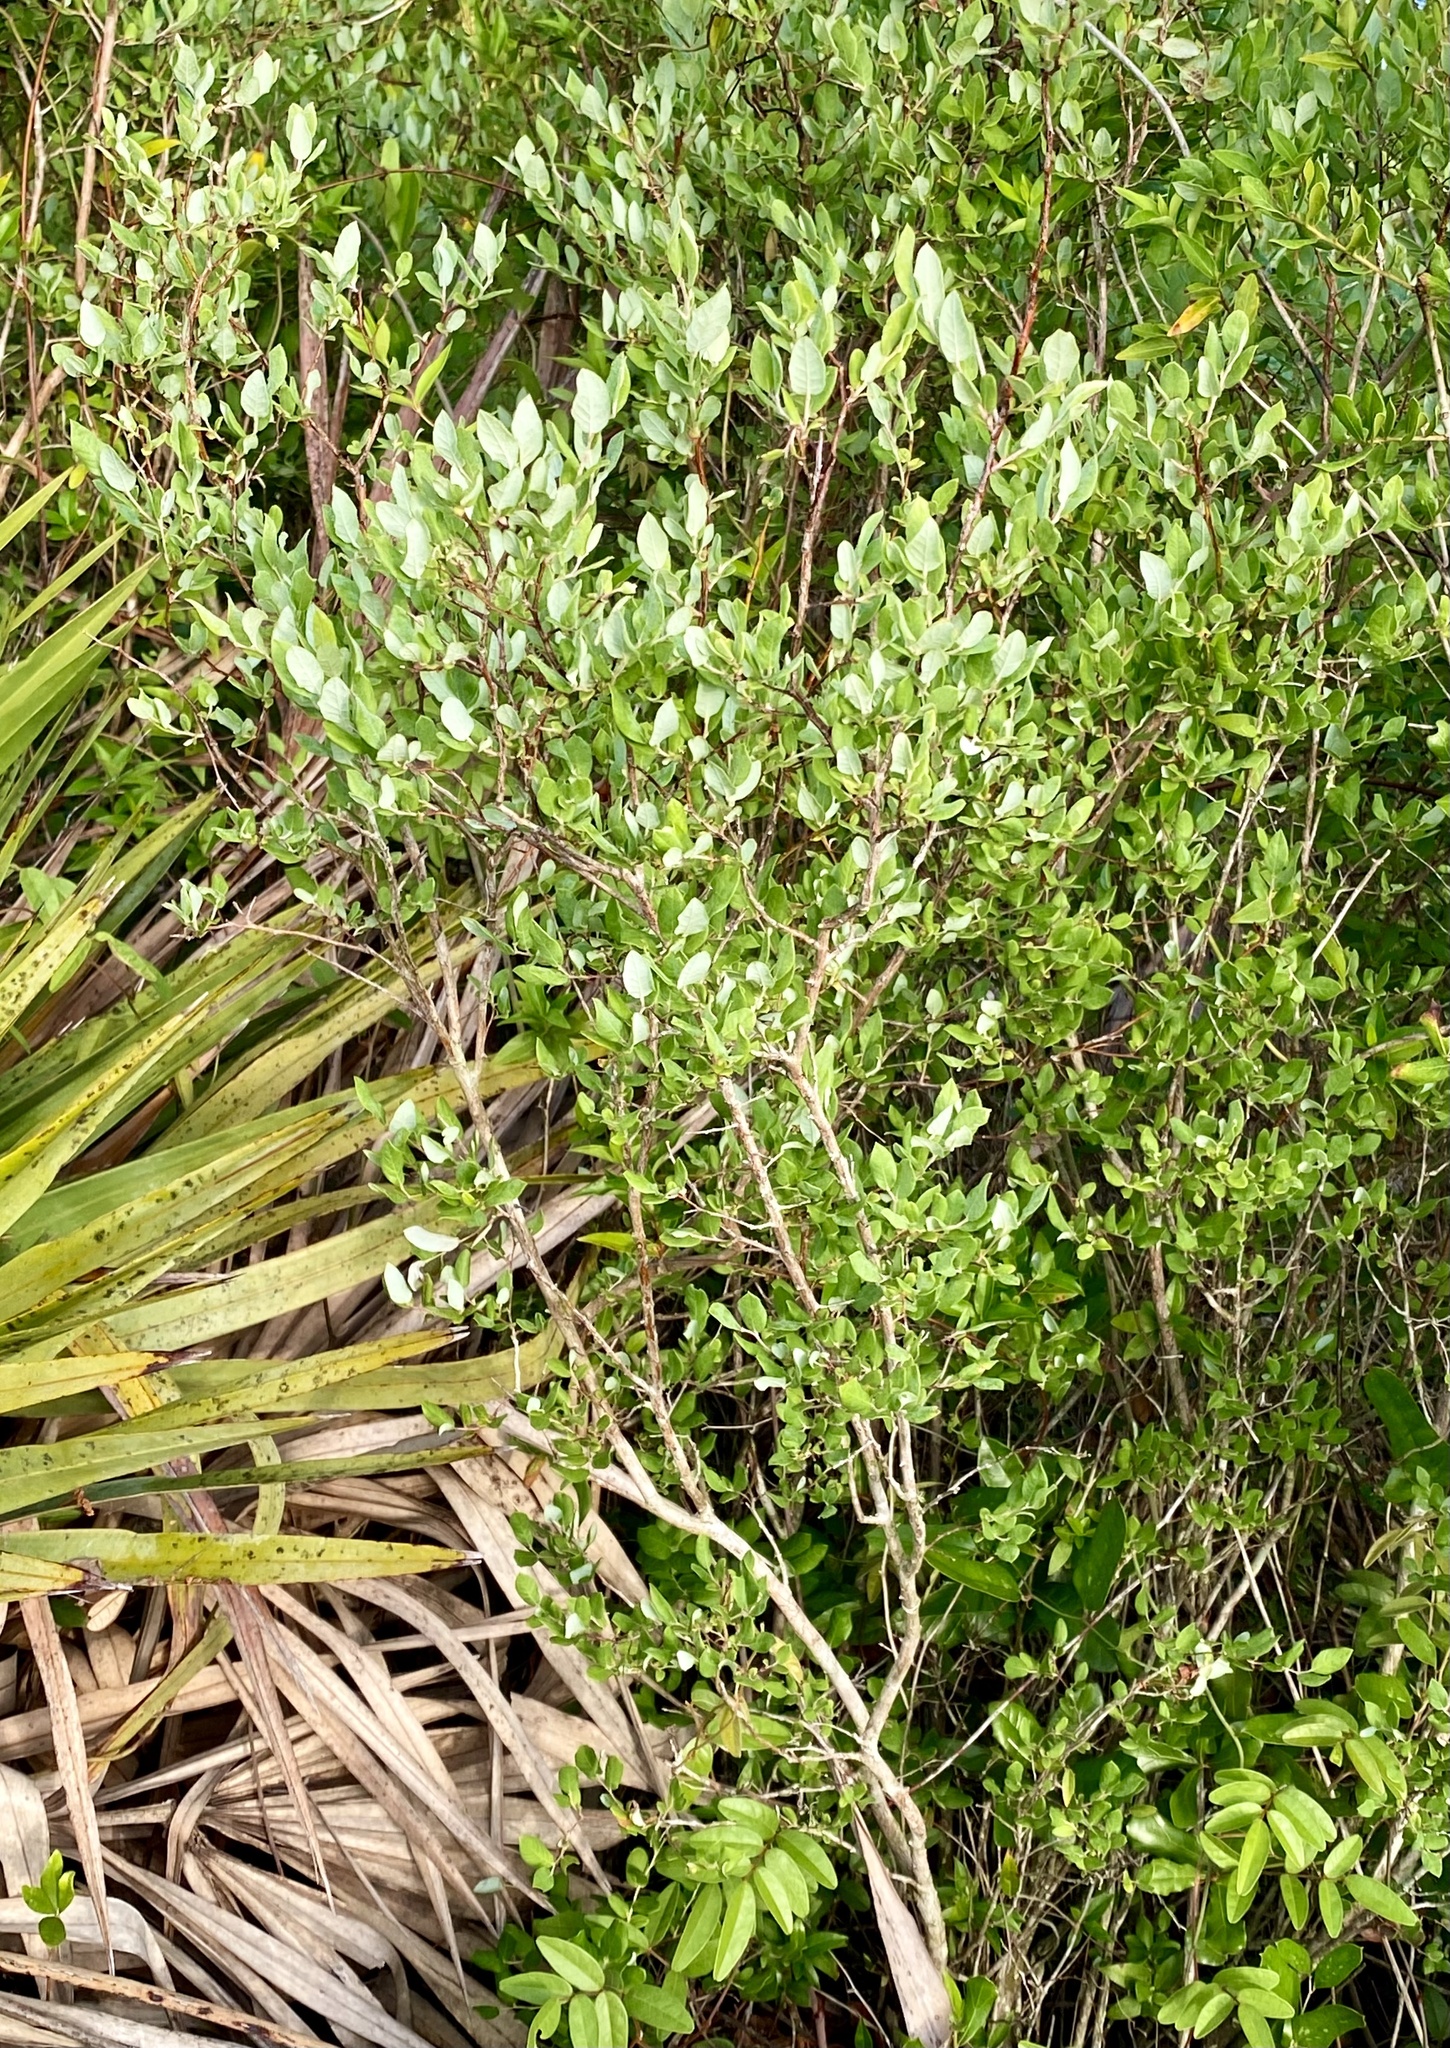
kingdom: Plantae
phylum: Tracheophyta
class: Magnoliopsida
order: Ericales
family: Ericaceae
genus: Vaccinium
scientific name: Vaccinium stamineum
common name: Deerberry
